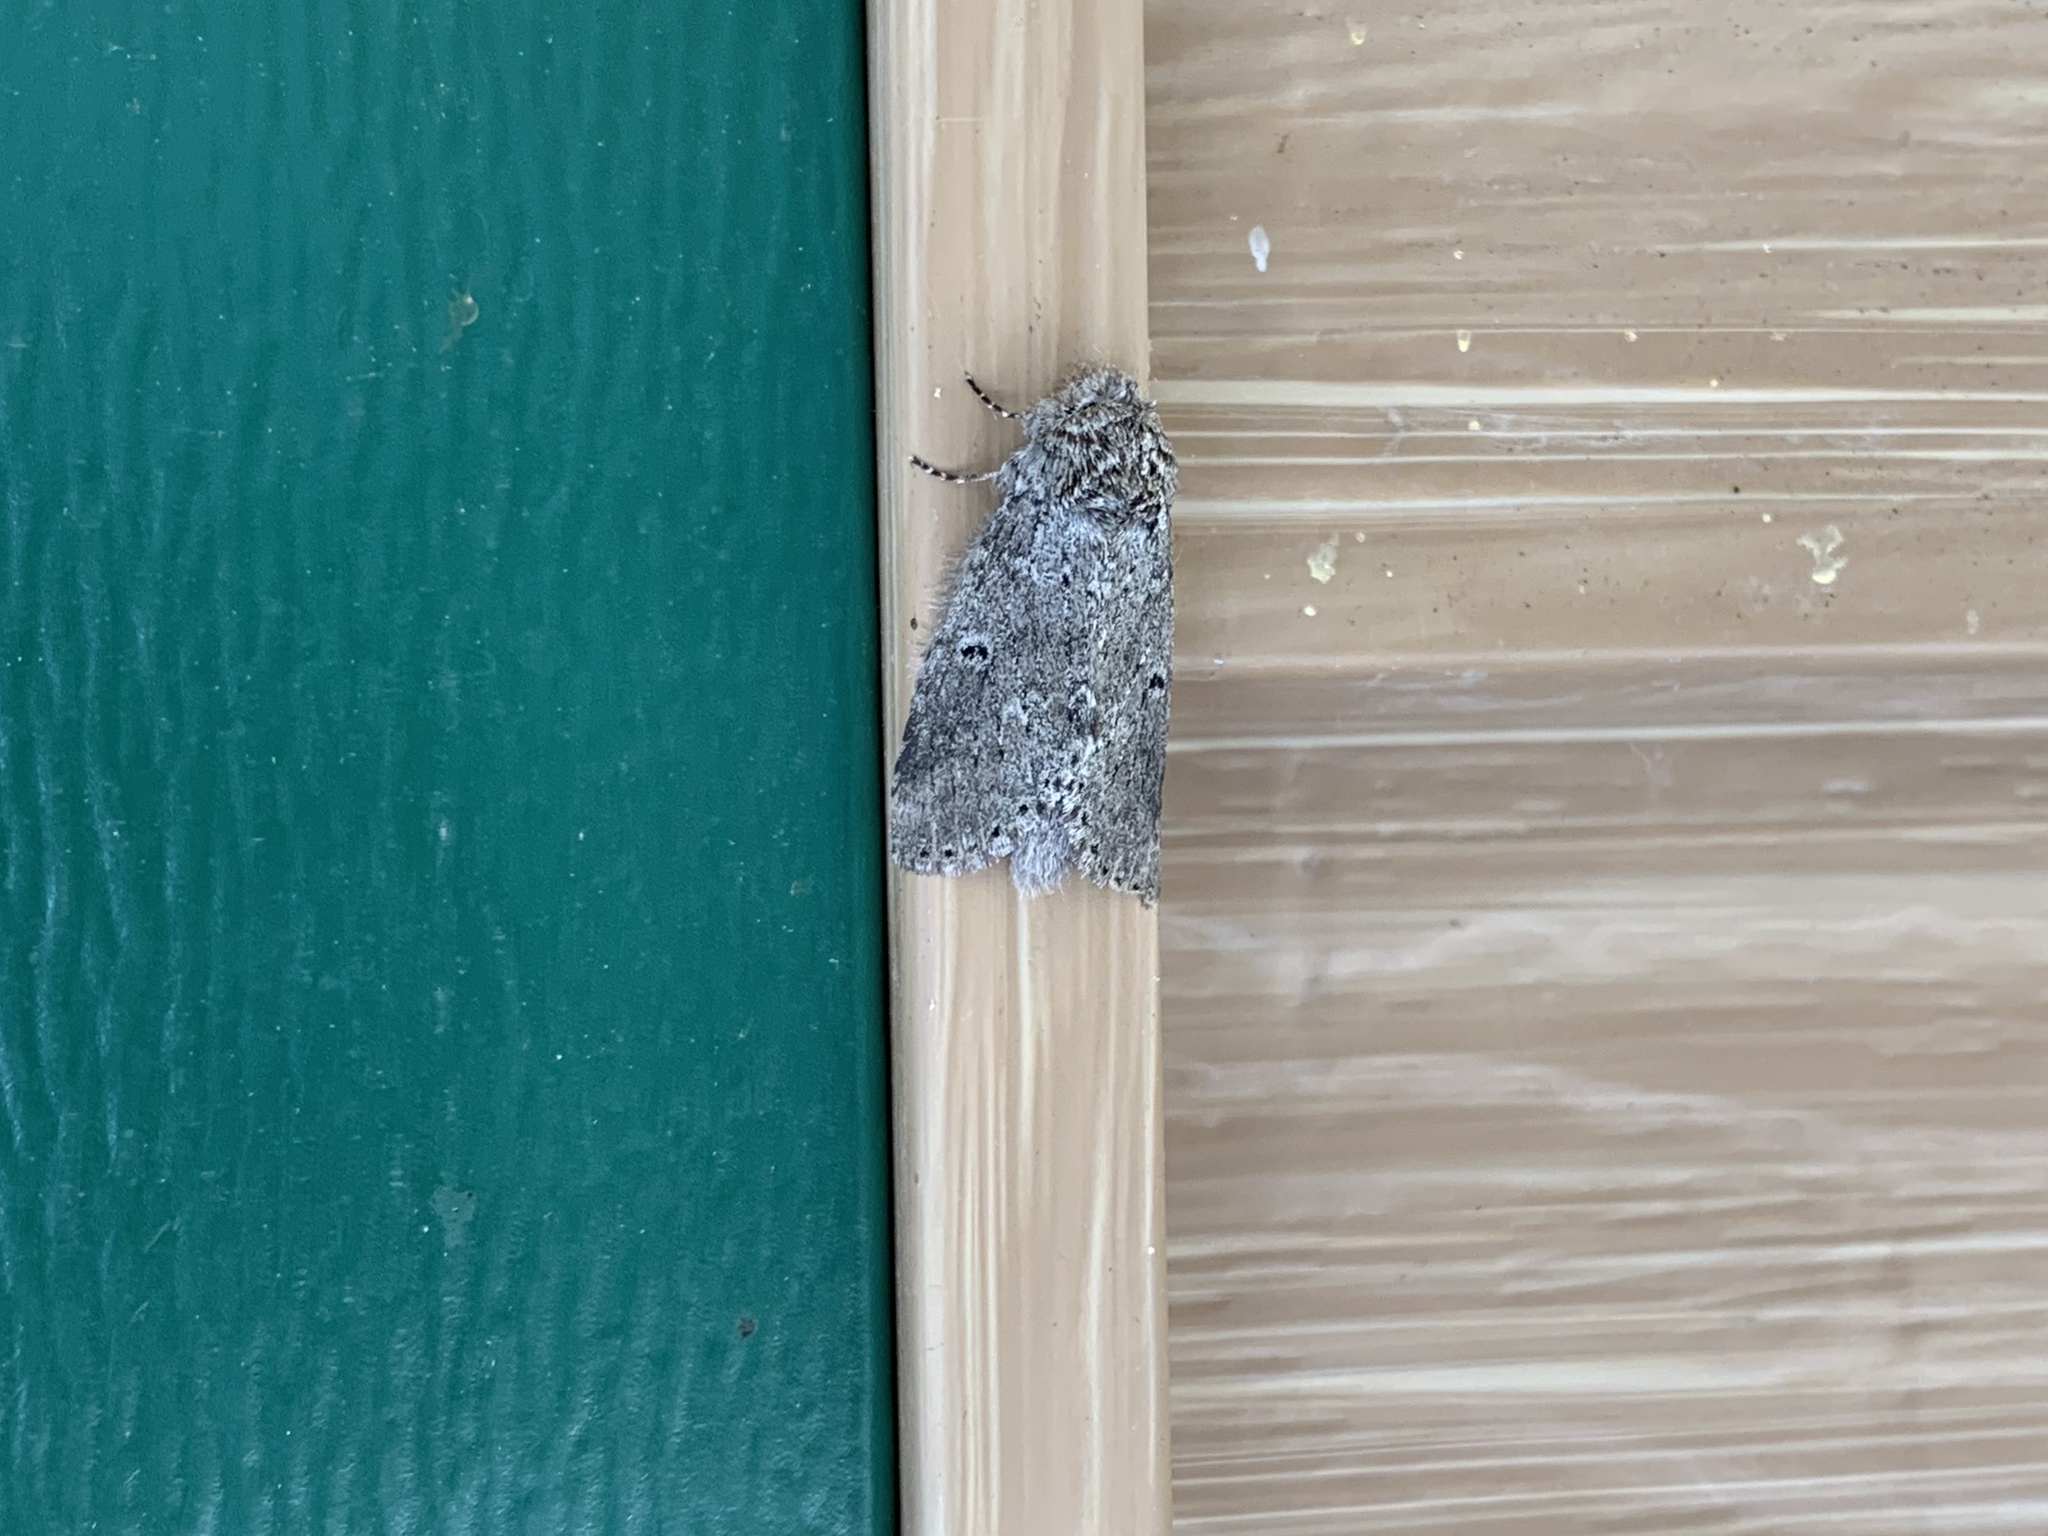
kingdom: Animalia
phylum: Arthropoda
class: Insecta
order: Lepidoptera
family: Notodontidae
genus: Lochmaeus
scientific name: Lochmaeus manteo
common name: Variable oakleaf caterpillar moth
